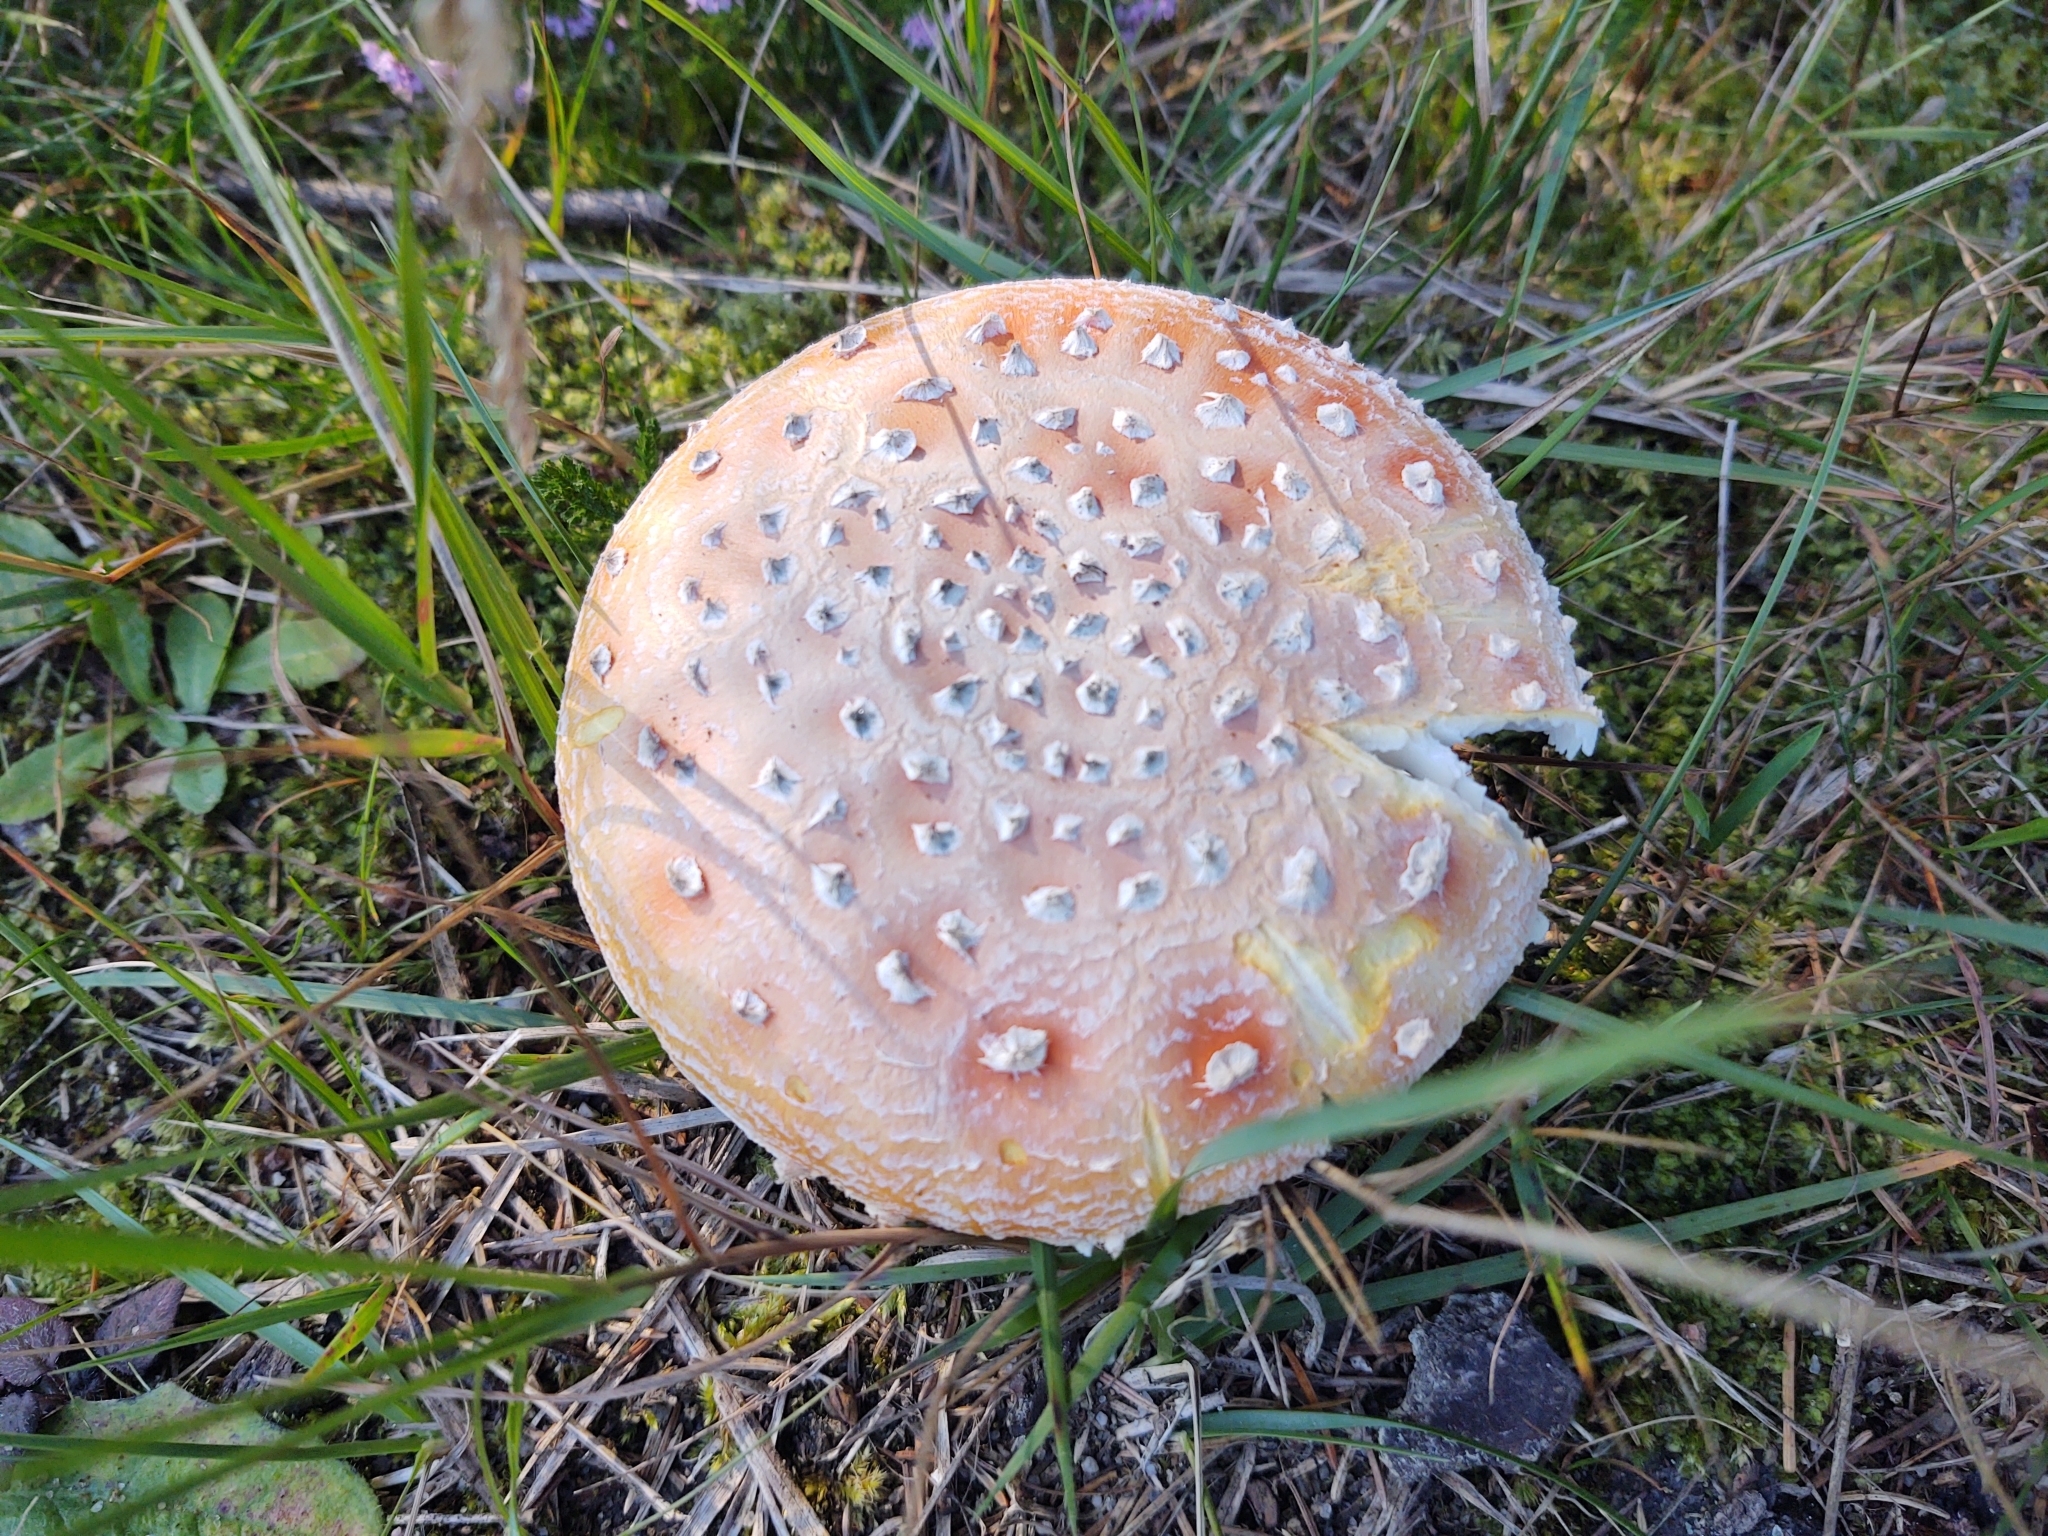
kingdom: Fungi
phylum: Basidiomycota
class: Agaricomycetes
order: Agaricales
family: Amanitaceae
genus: Amanita
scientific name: Amanita muscaria
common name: Fly agaric
